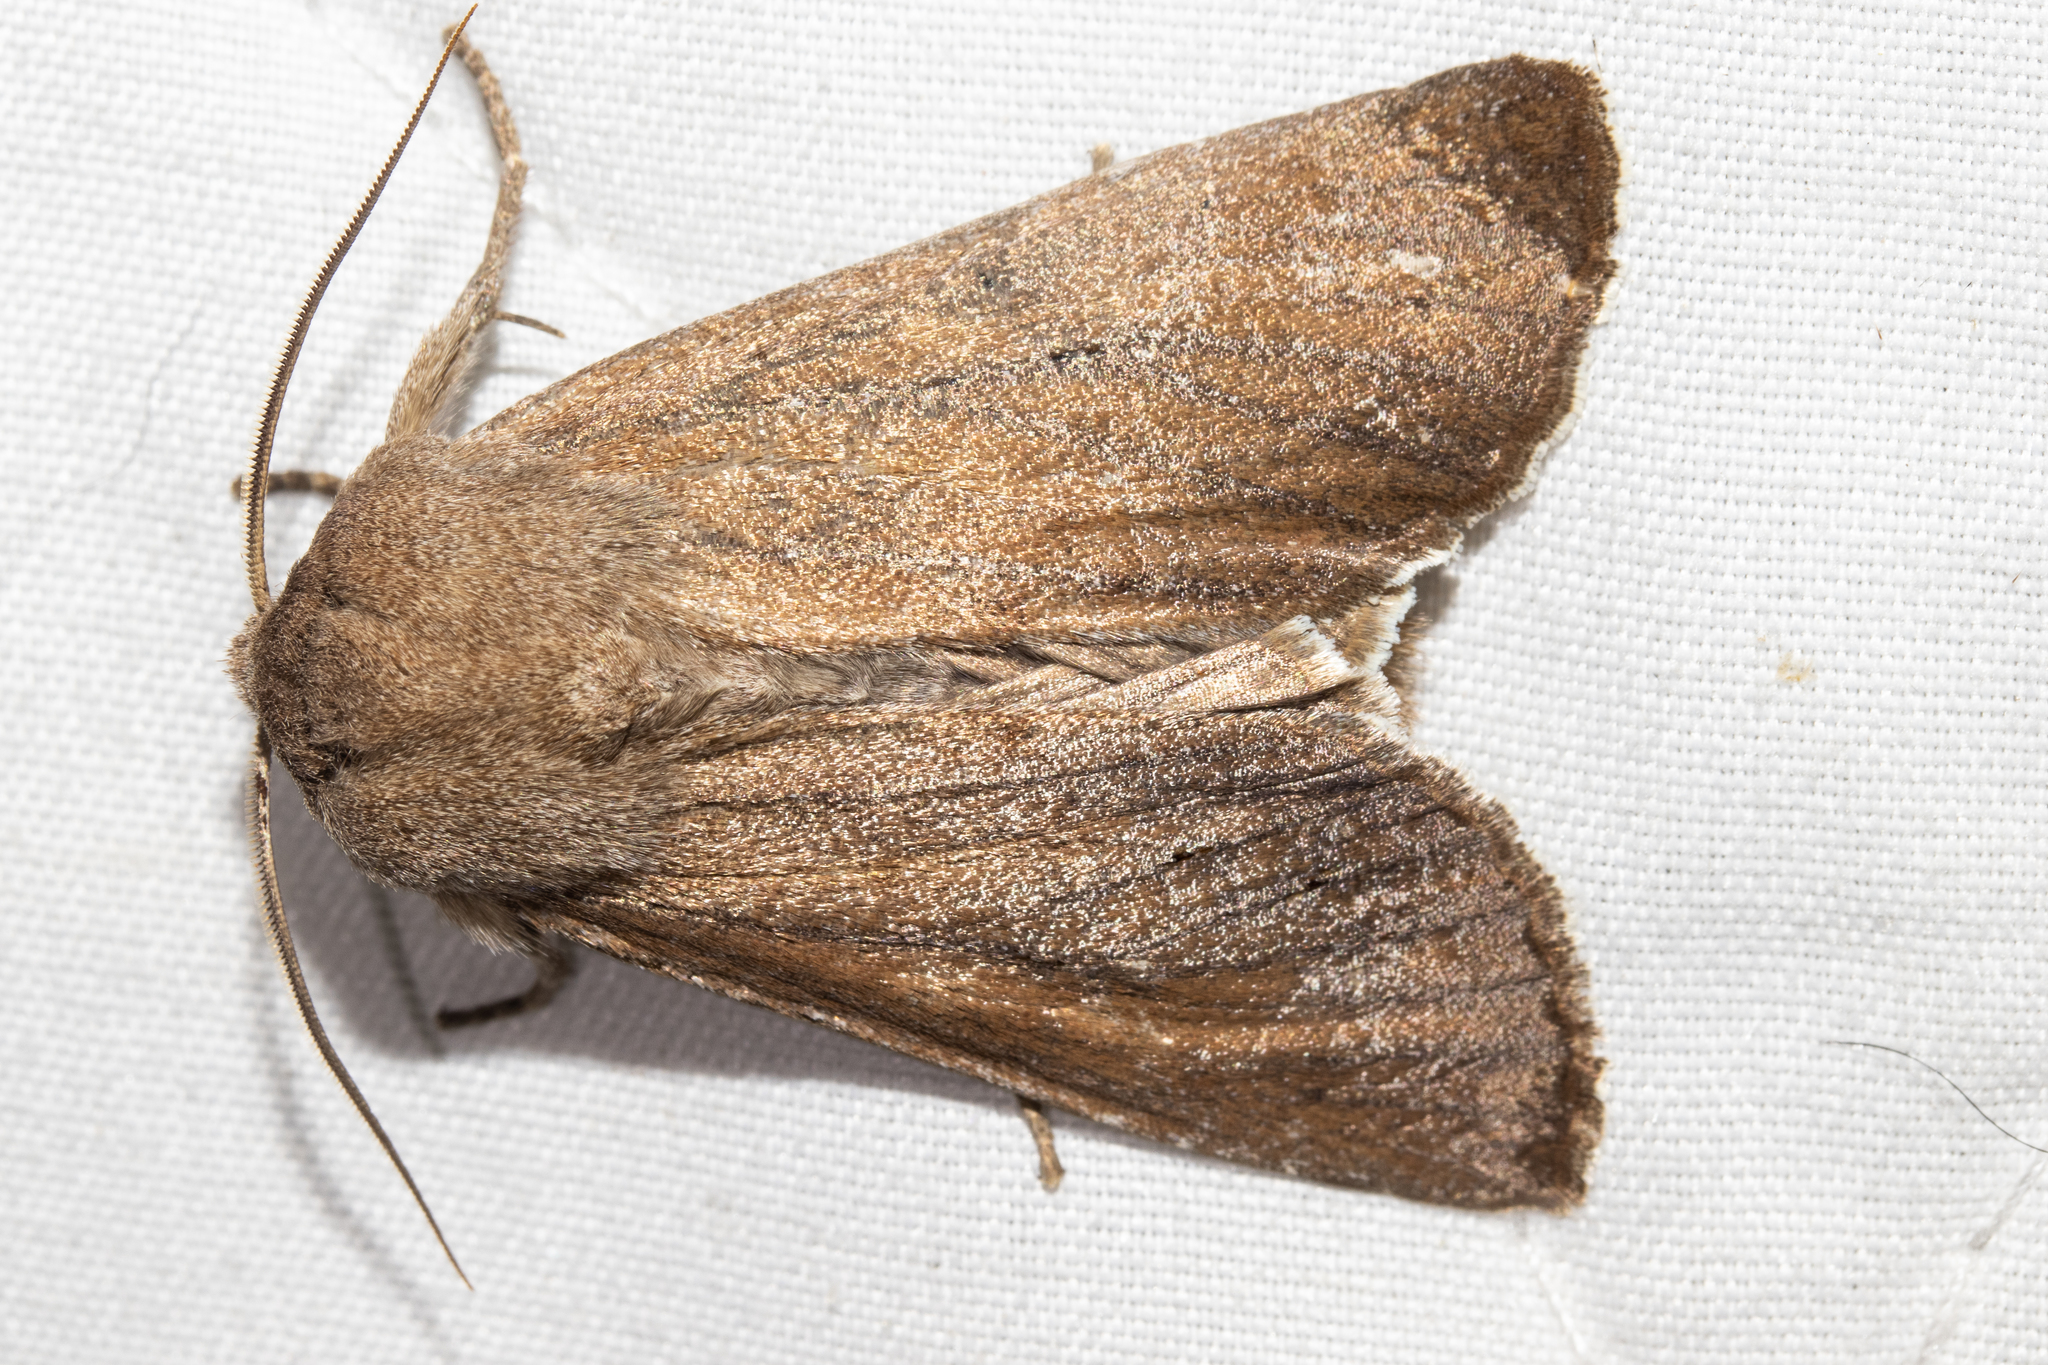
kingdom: Animalia
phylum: Arthropoda
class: Insecta
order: Lepidoptera
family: Noctuidae
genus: Ichneutica
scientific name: Ichneutica nullifera
